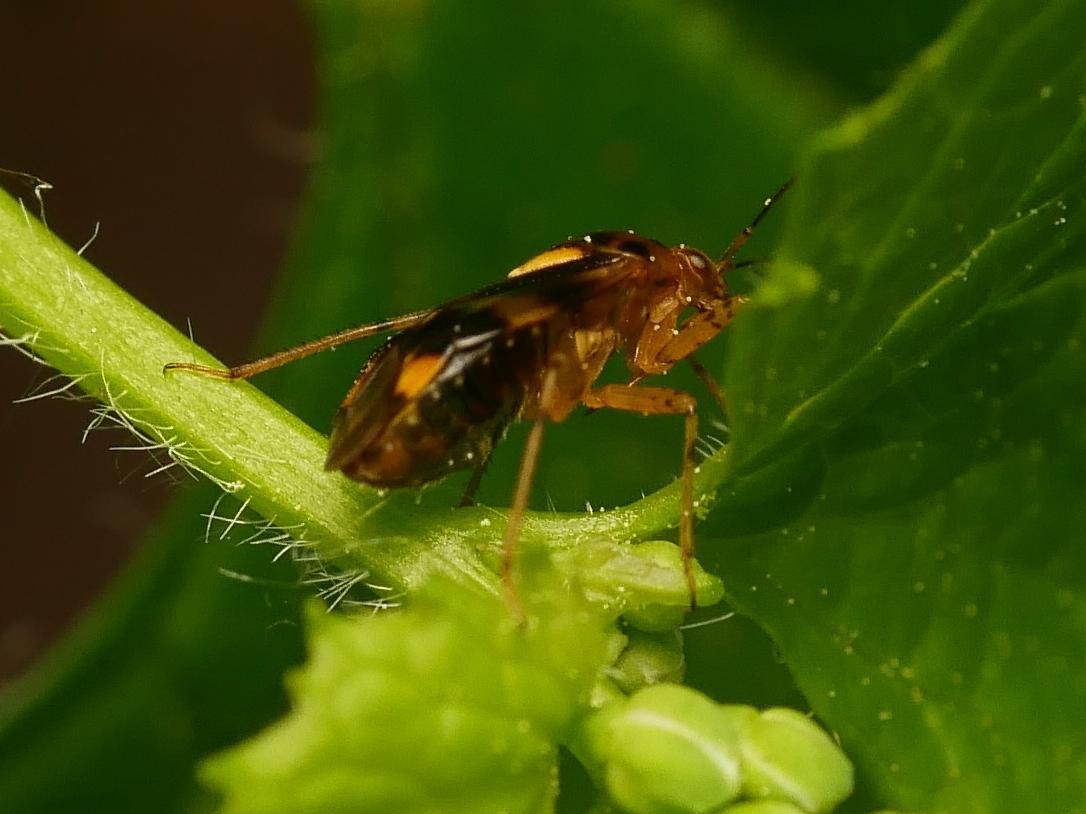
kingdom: Animalia
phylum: Arthropoda
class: Insecta
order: Hemiptera
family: Miridae
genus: Liocoris
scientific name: Liocoris tripustulatus
